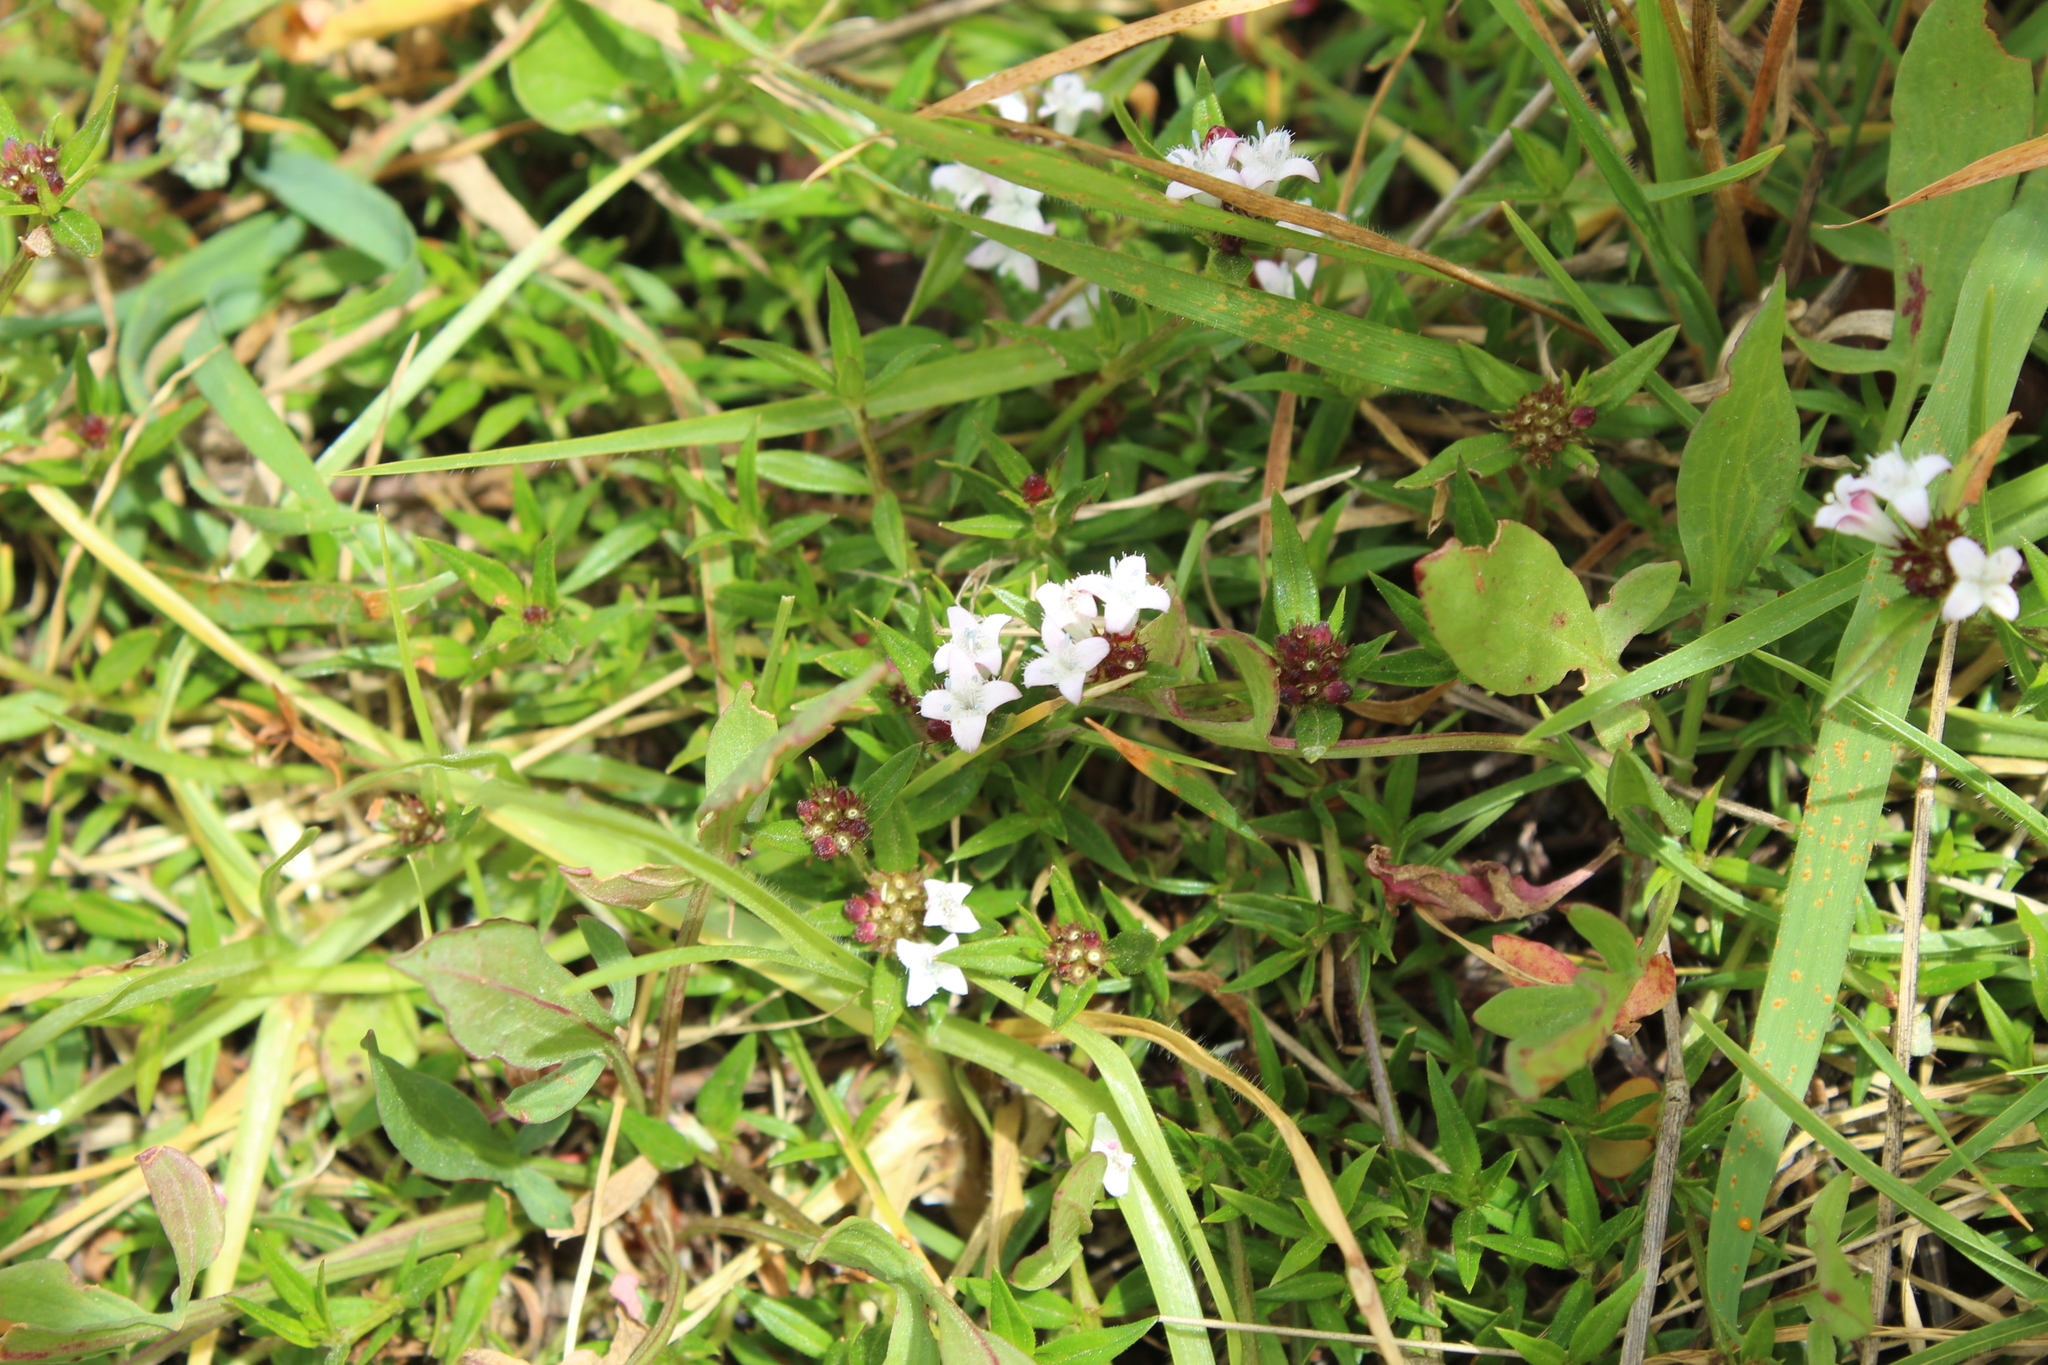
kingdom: Plantae
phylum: Tracheophyta
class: Magnoliopsida
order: Gentianales
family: Rubiaceae
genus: Spermacoce
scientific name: Spermacoce chartensis
